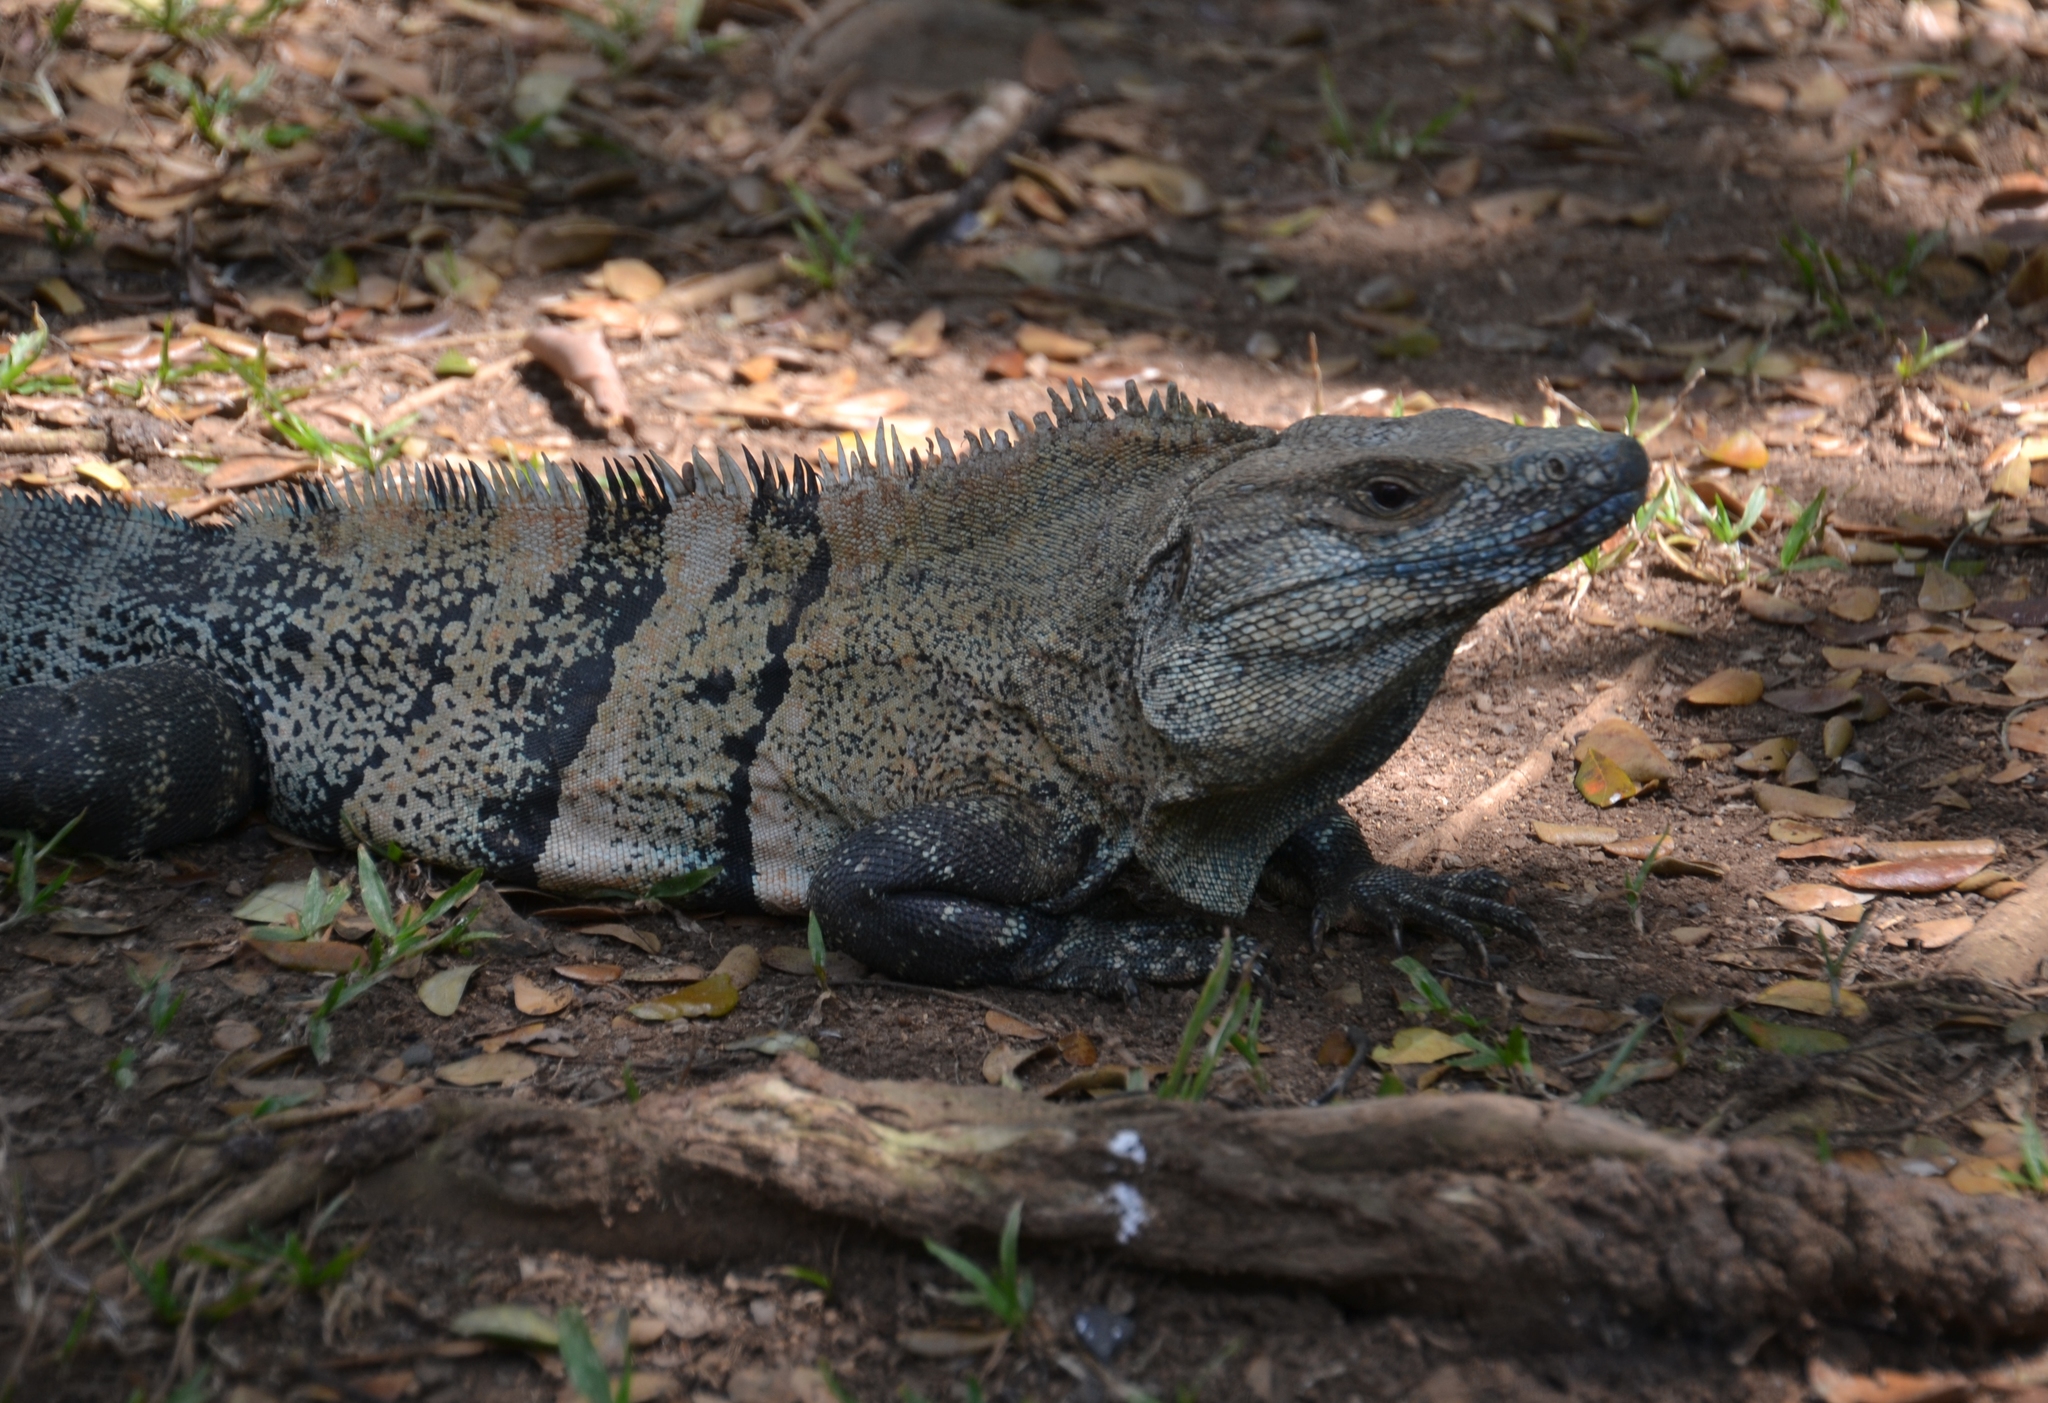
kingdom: Animalia
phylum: Chordata
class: Squamata
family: Iguanidae
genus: Ctenosaura
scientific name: Ctenosaura similis
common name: Black spiny-tailed iguana
